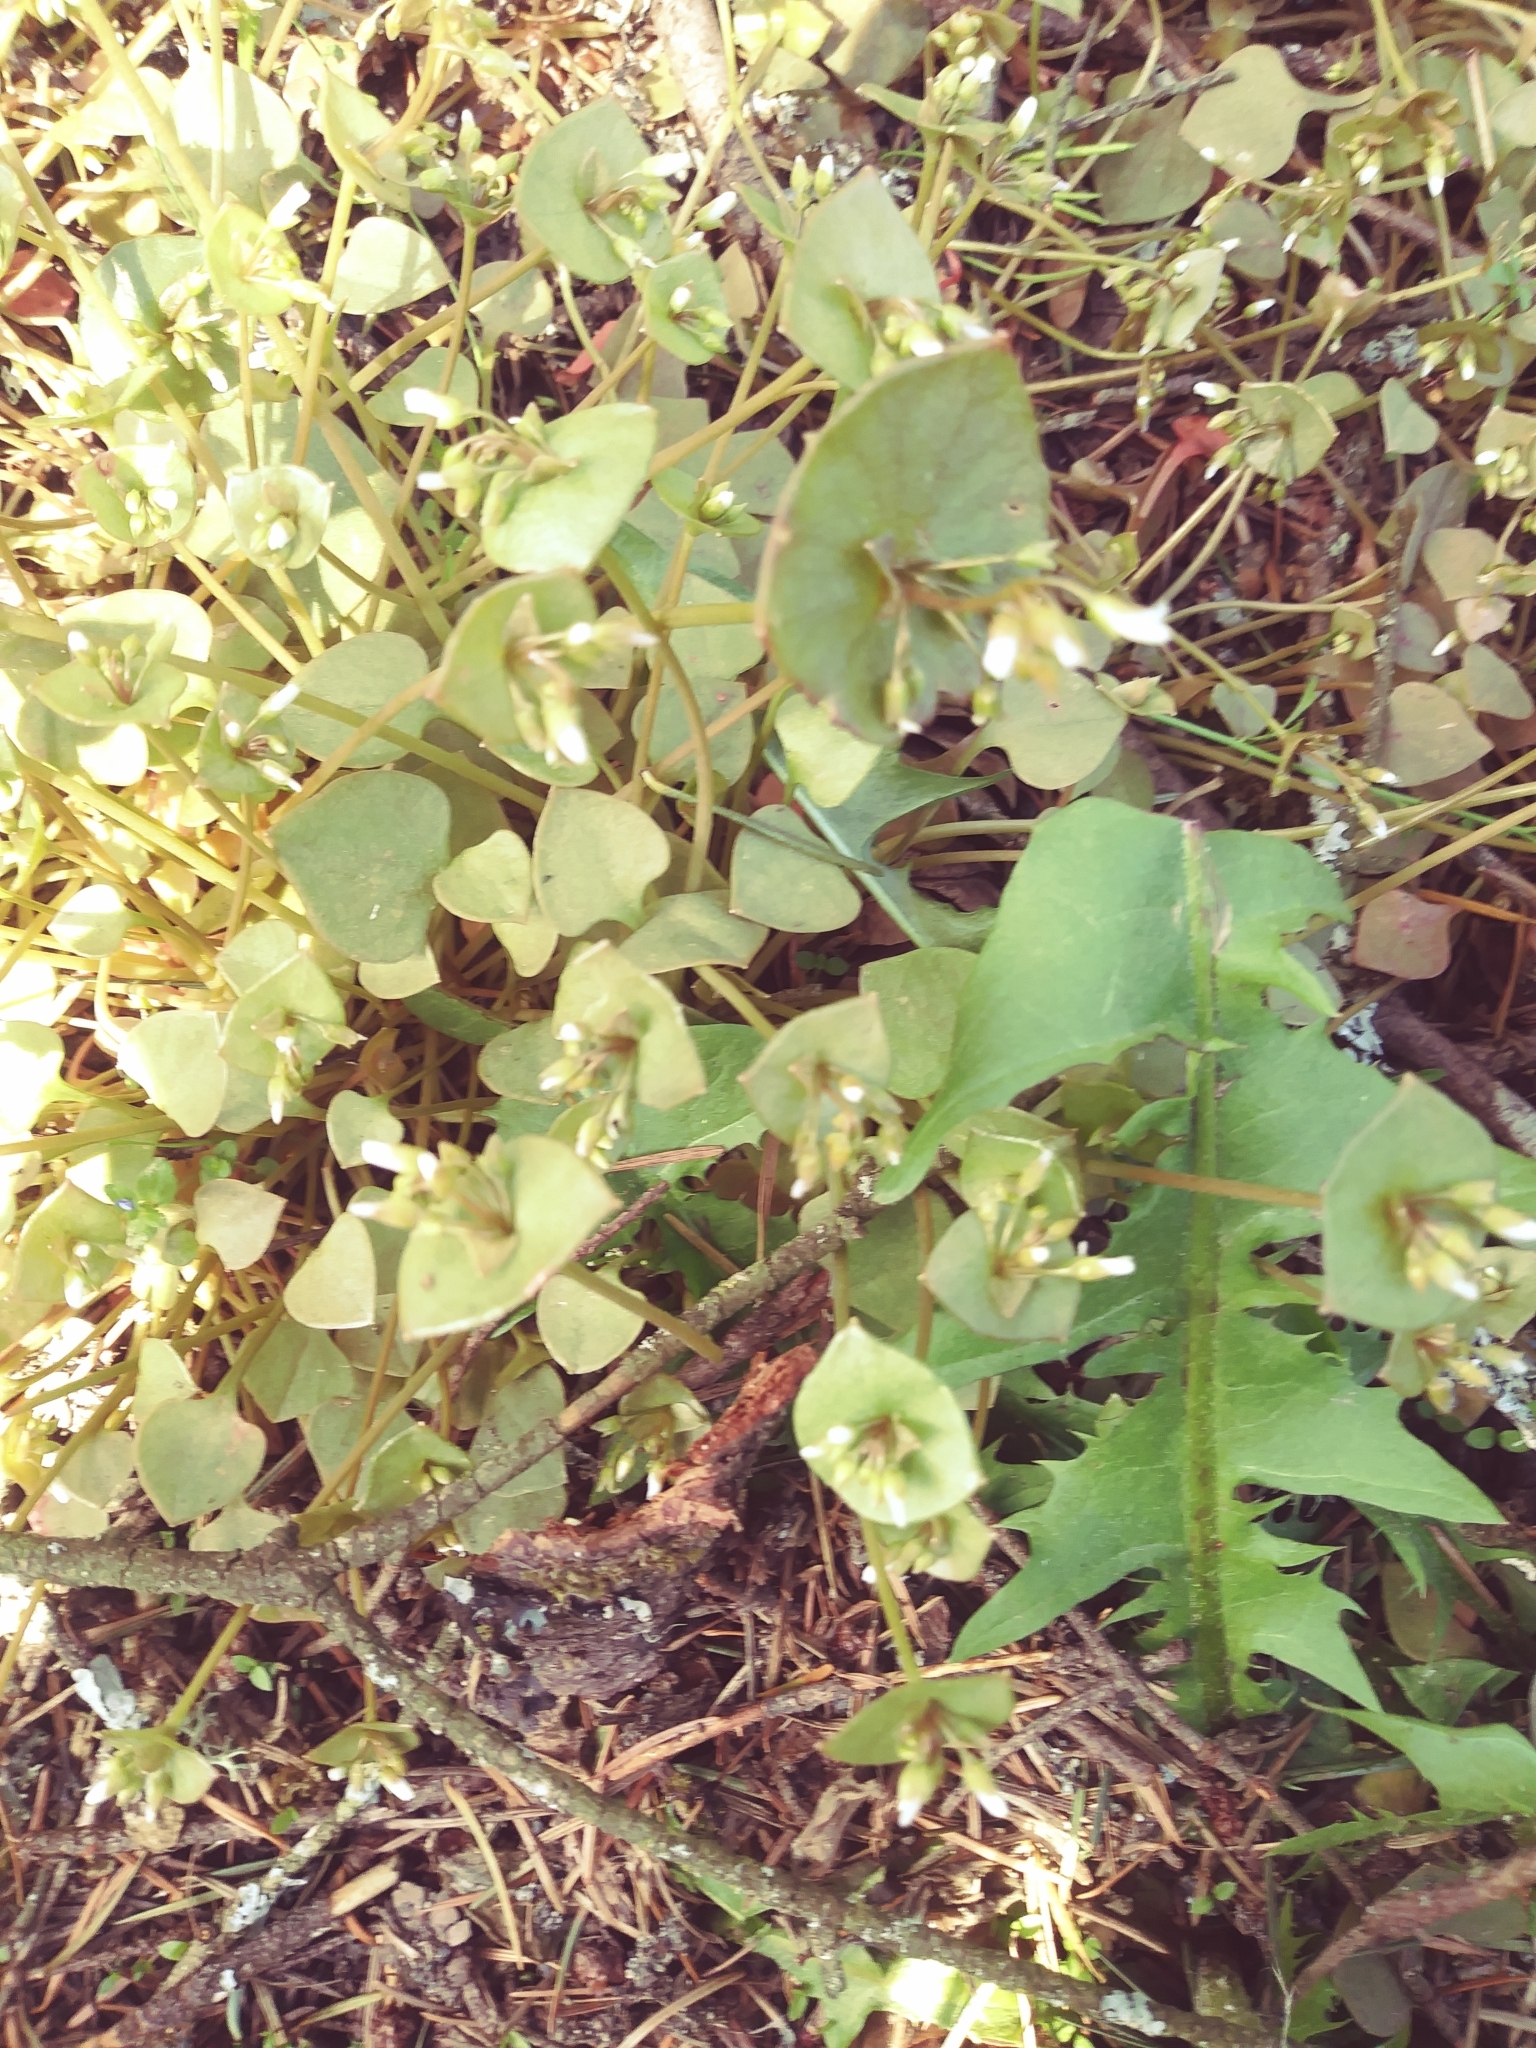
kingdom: Plantae
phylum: Tracheophyta
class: Magnoliopsida
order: Caryophyllales
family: Montiaceae
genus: Claytonia
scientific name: Claytonia perfoliata
